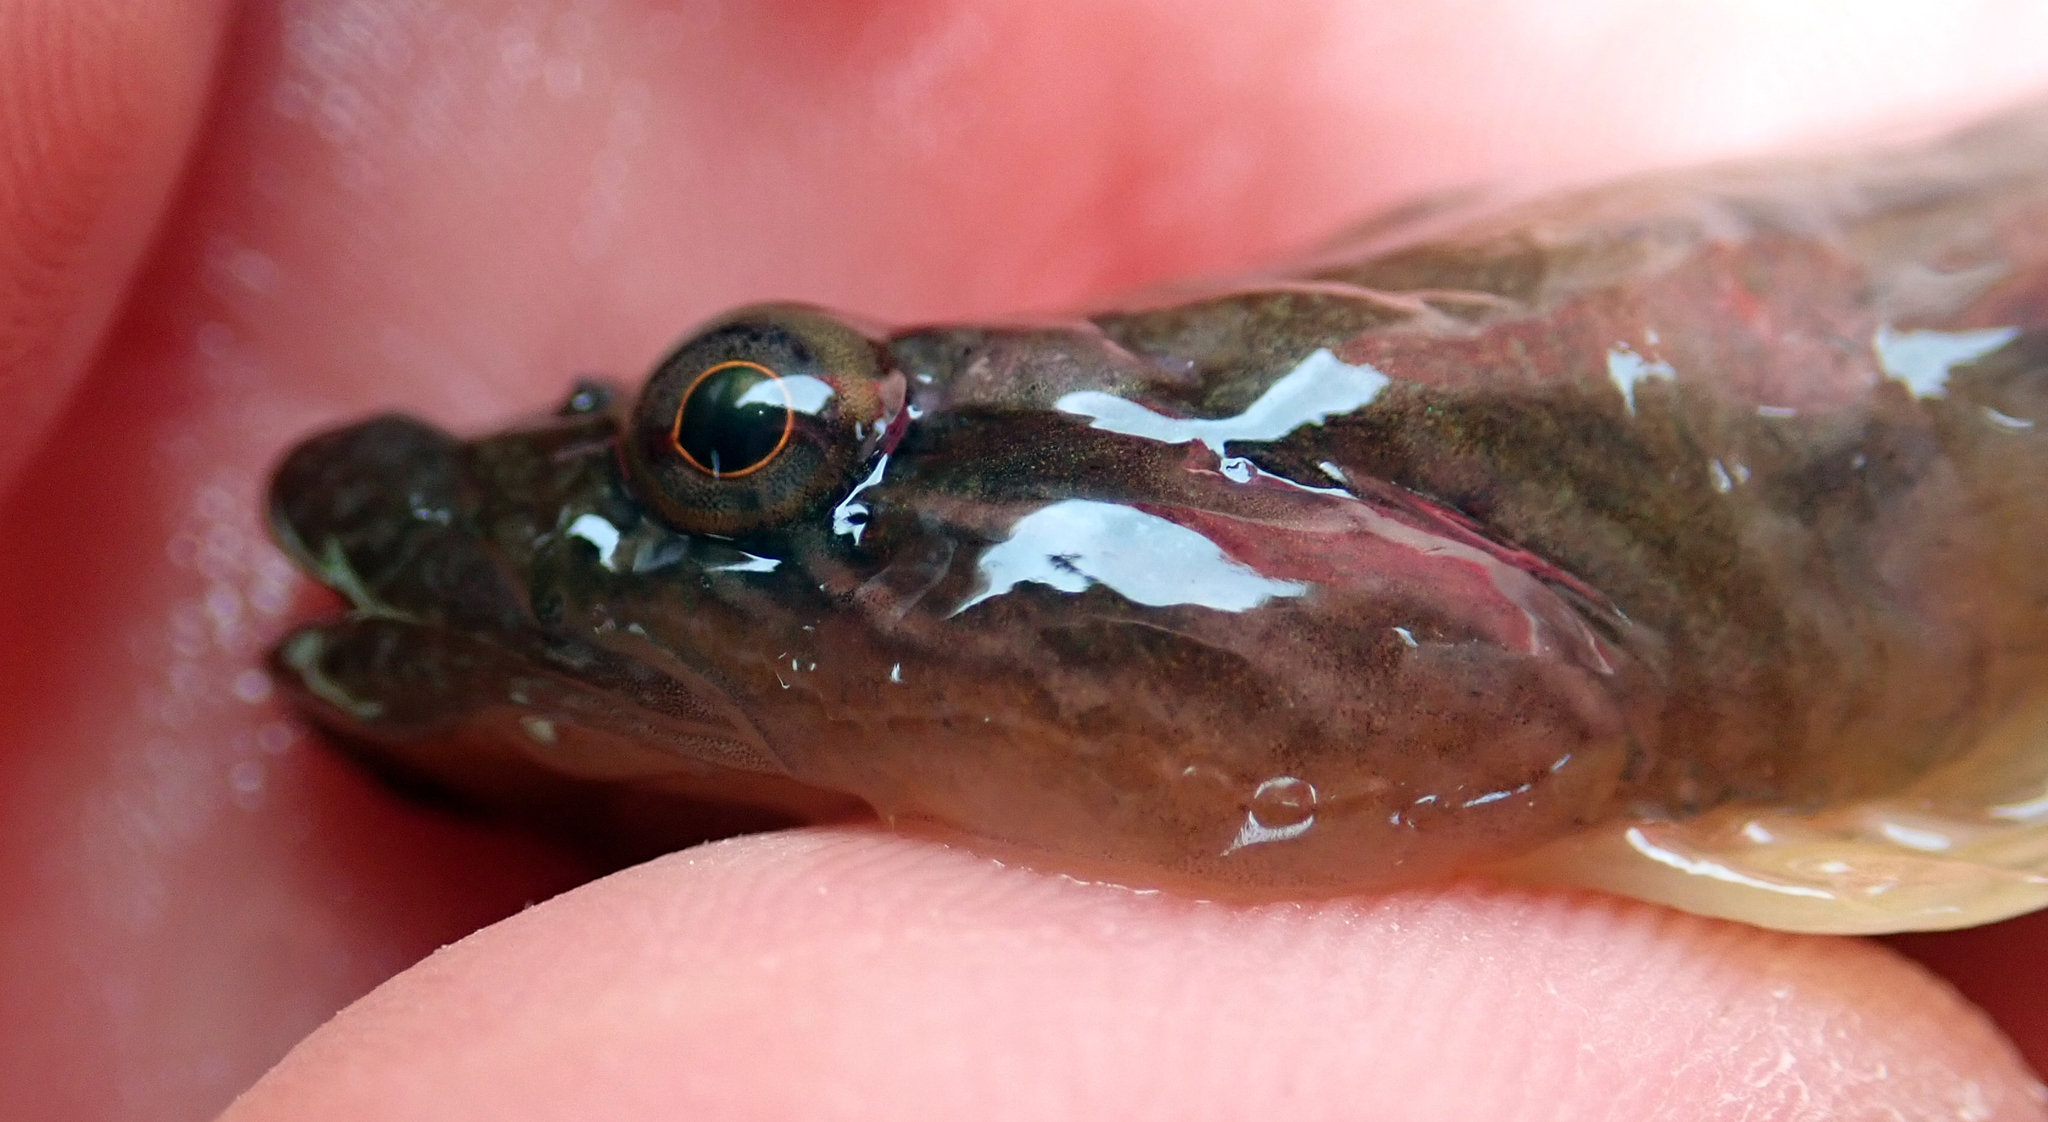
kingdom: Animalia
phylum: Chordata
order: Gobiesociformes
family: Gobiesocidae
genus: Trachelochismus
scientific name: Trachelochismus pinnulatus
